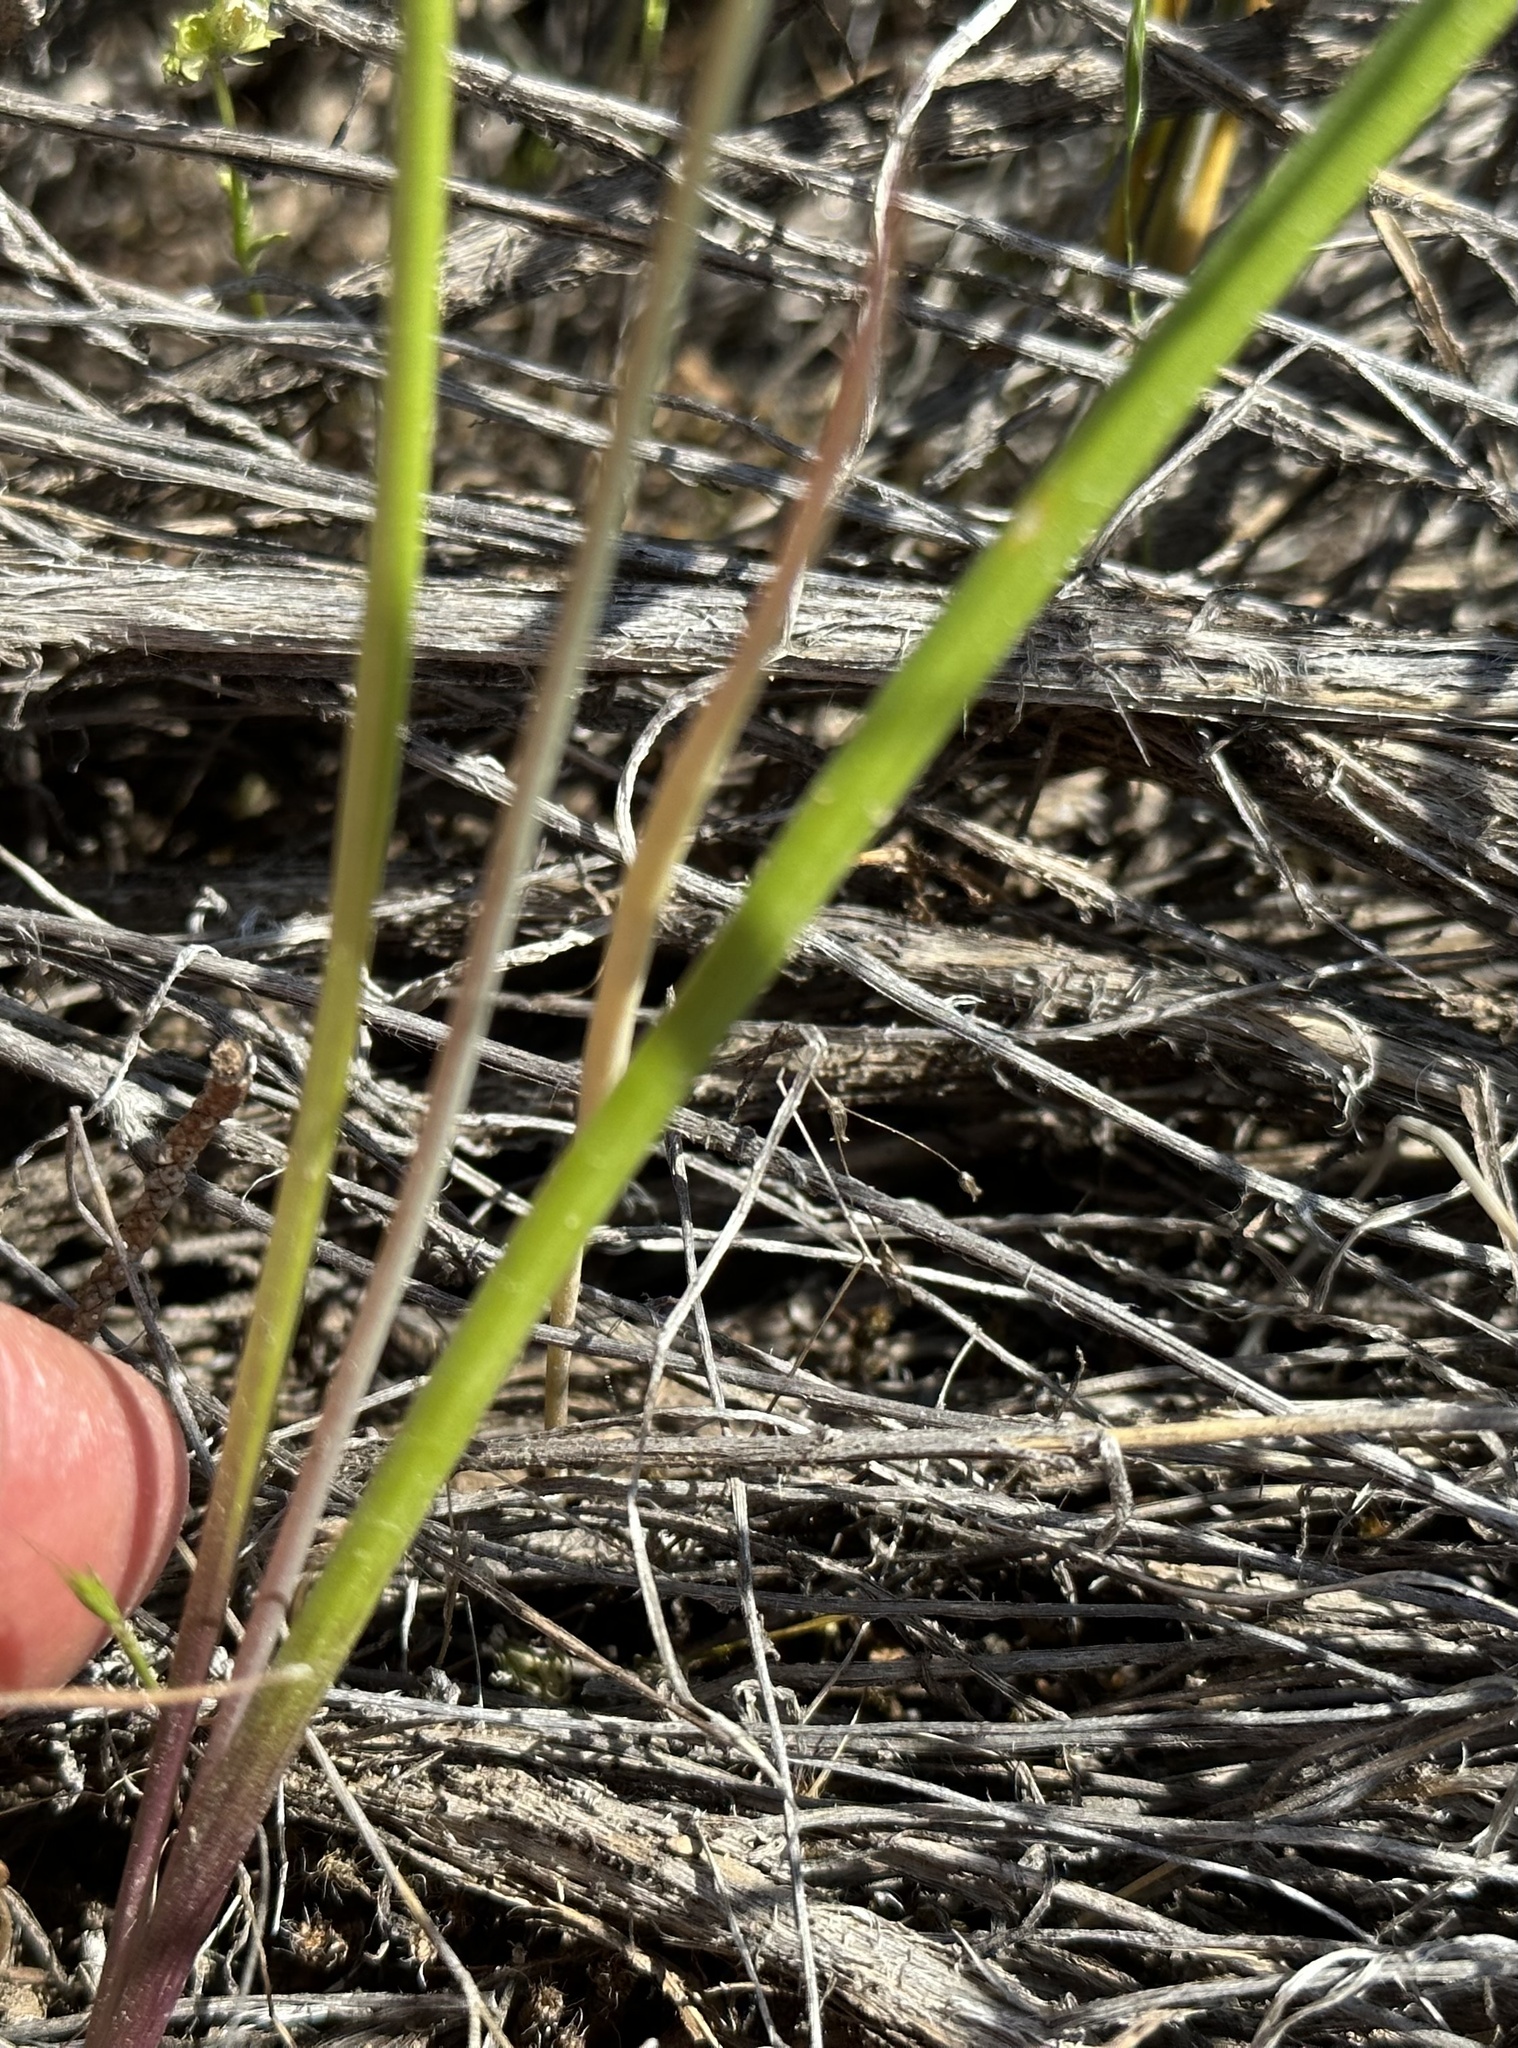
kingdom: Plantae
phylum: Tracheophyta
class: Liliopsida
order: Asparagales
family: Asparagaceae
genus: Triteleia
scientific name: Triteleia grandiflora
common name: Wild hyacinth
